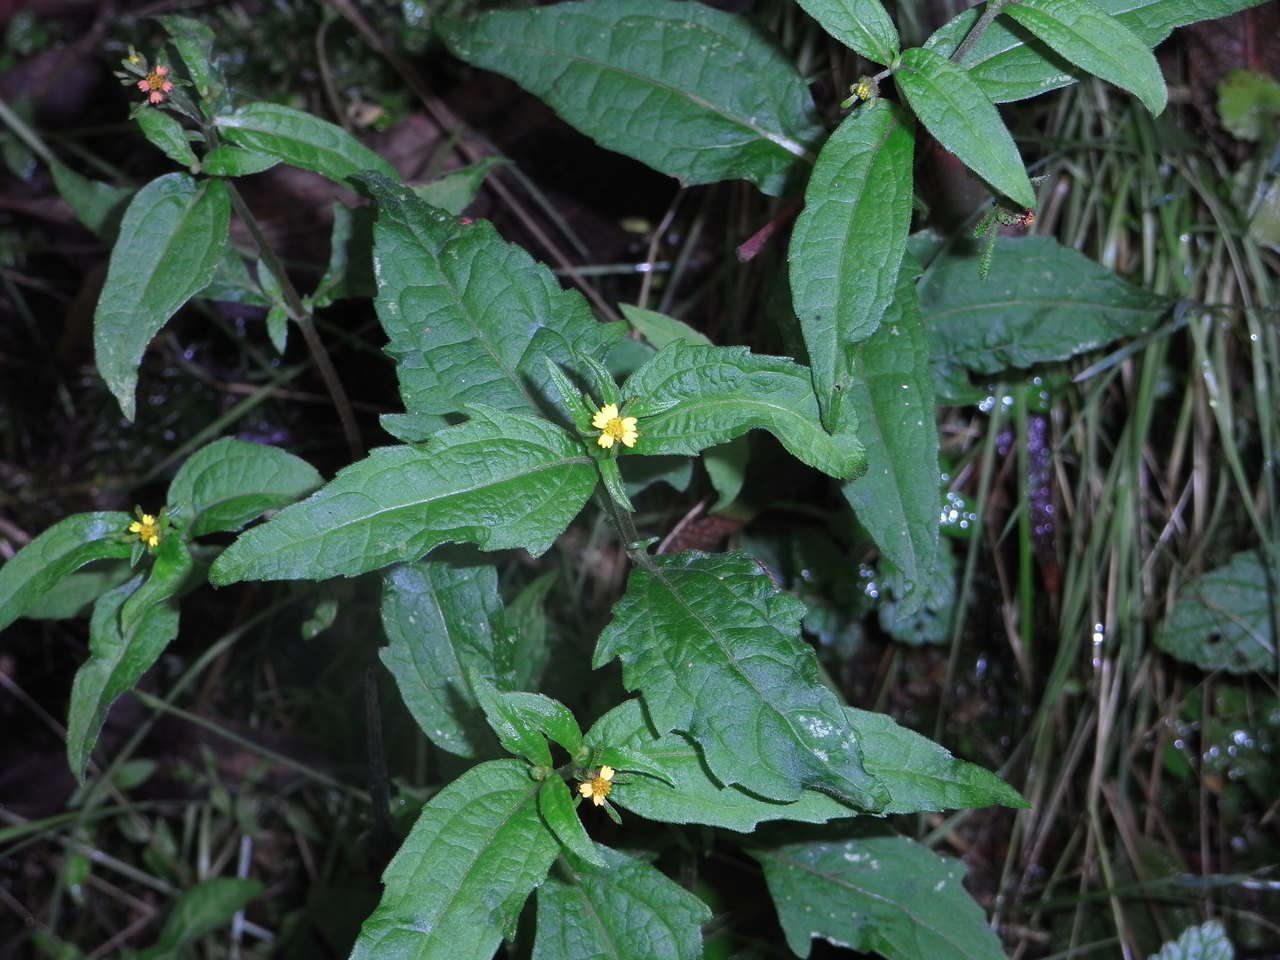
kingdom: Plantae
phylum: Tracheophyta
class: Magnoliopsida
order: Asterales
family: Asteraceae
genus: Sigesbeckia
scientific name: Sigesbeckia orientalis
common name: Eastern st paul's-wort
